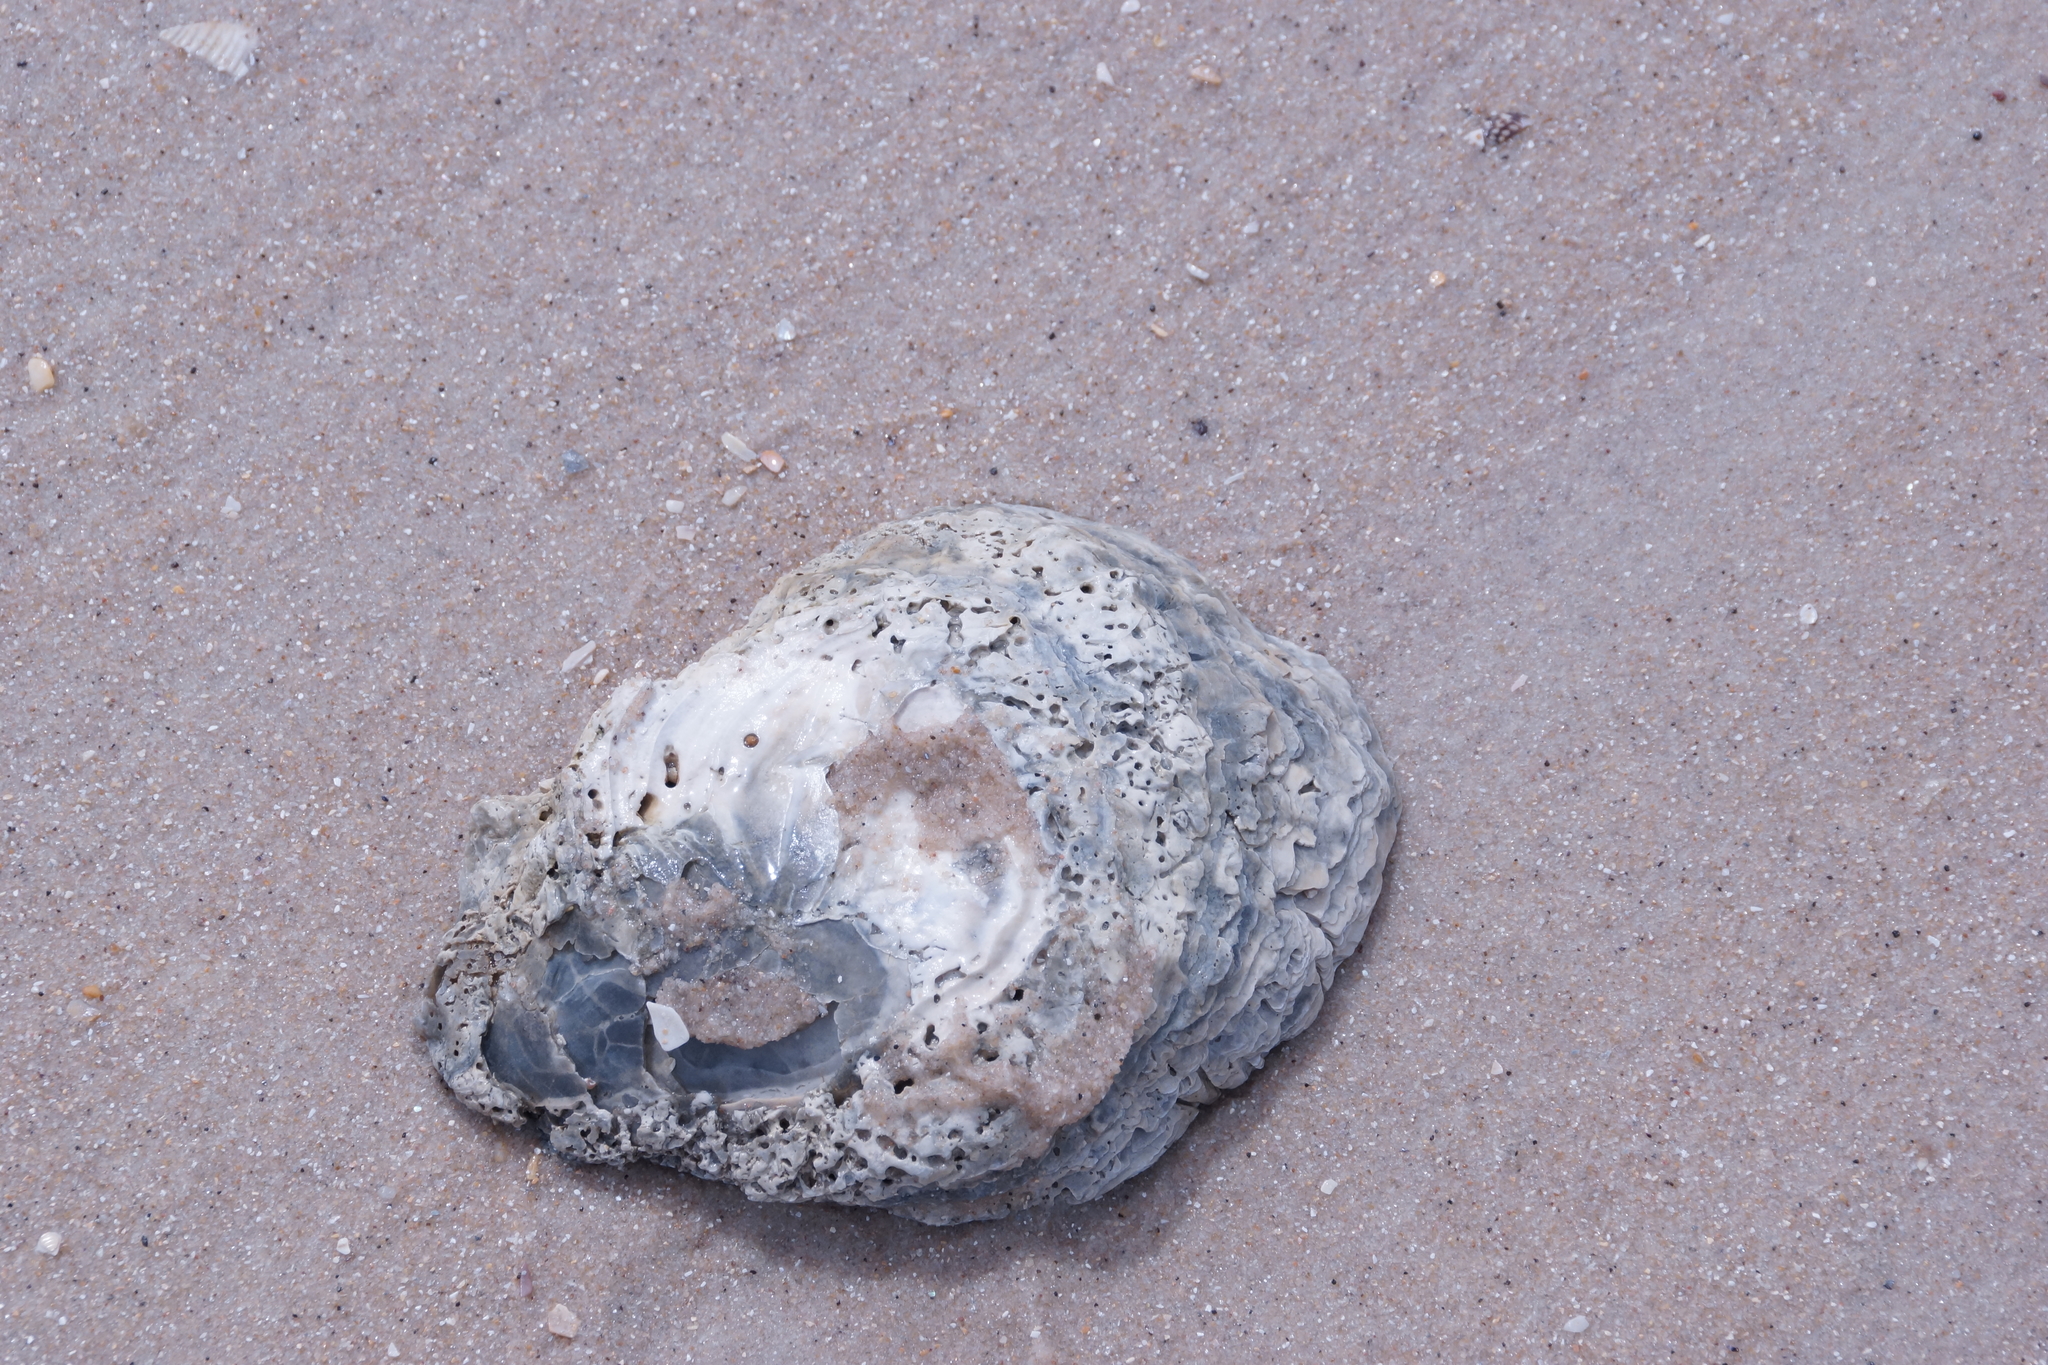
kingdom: Animalia
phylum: Mollusca
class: Bivalvia
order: Ostreida
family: Ostreidae
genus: Ostrea
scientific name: Ostrea angasi
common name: Angasi oyster
